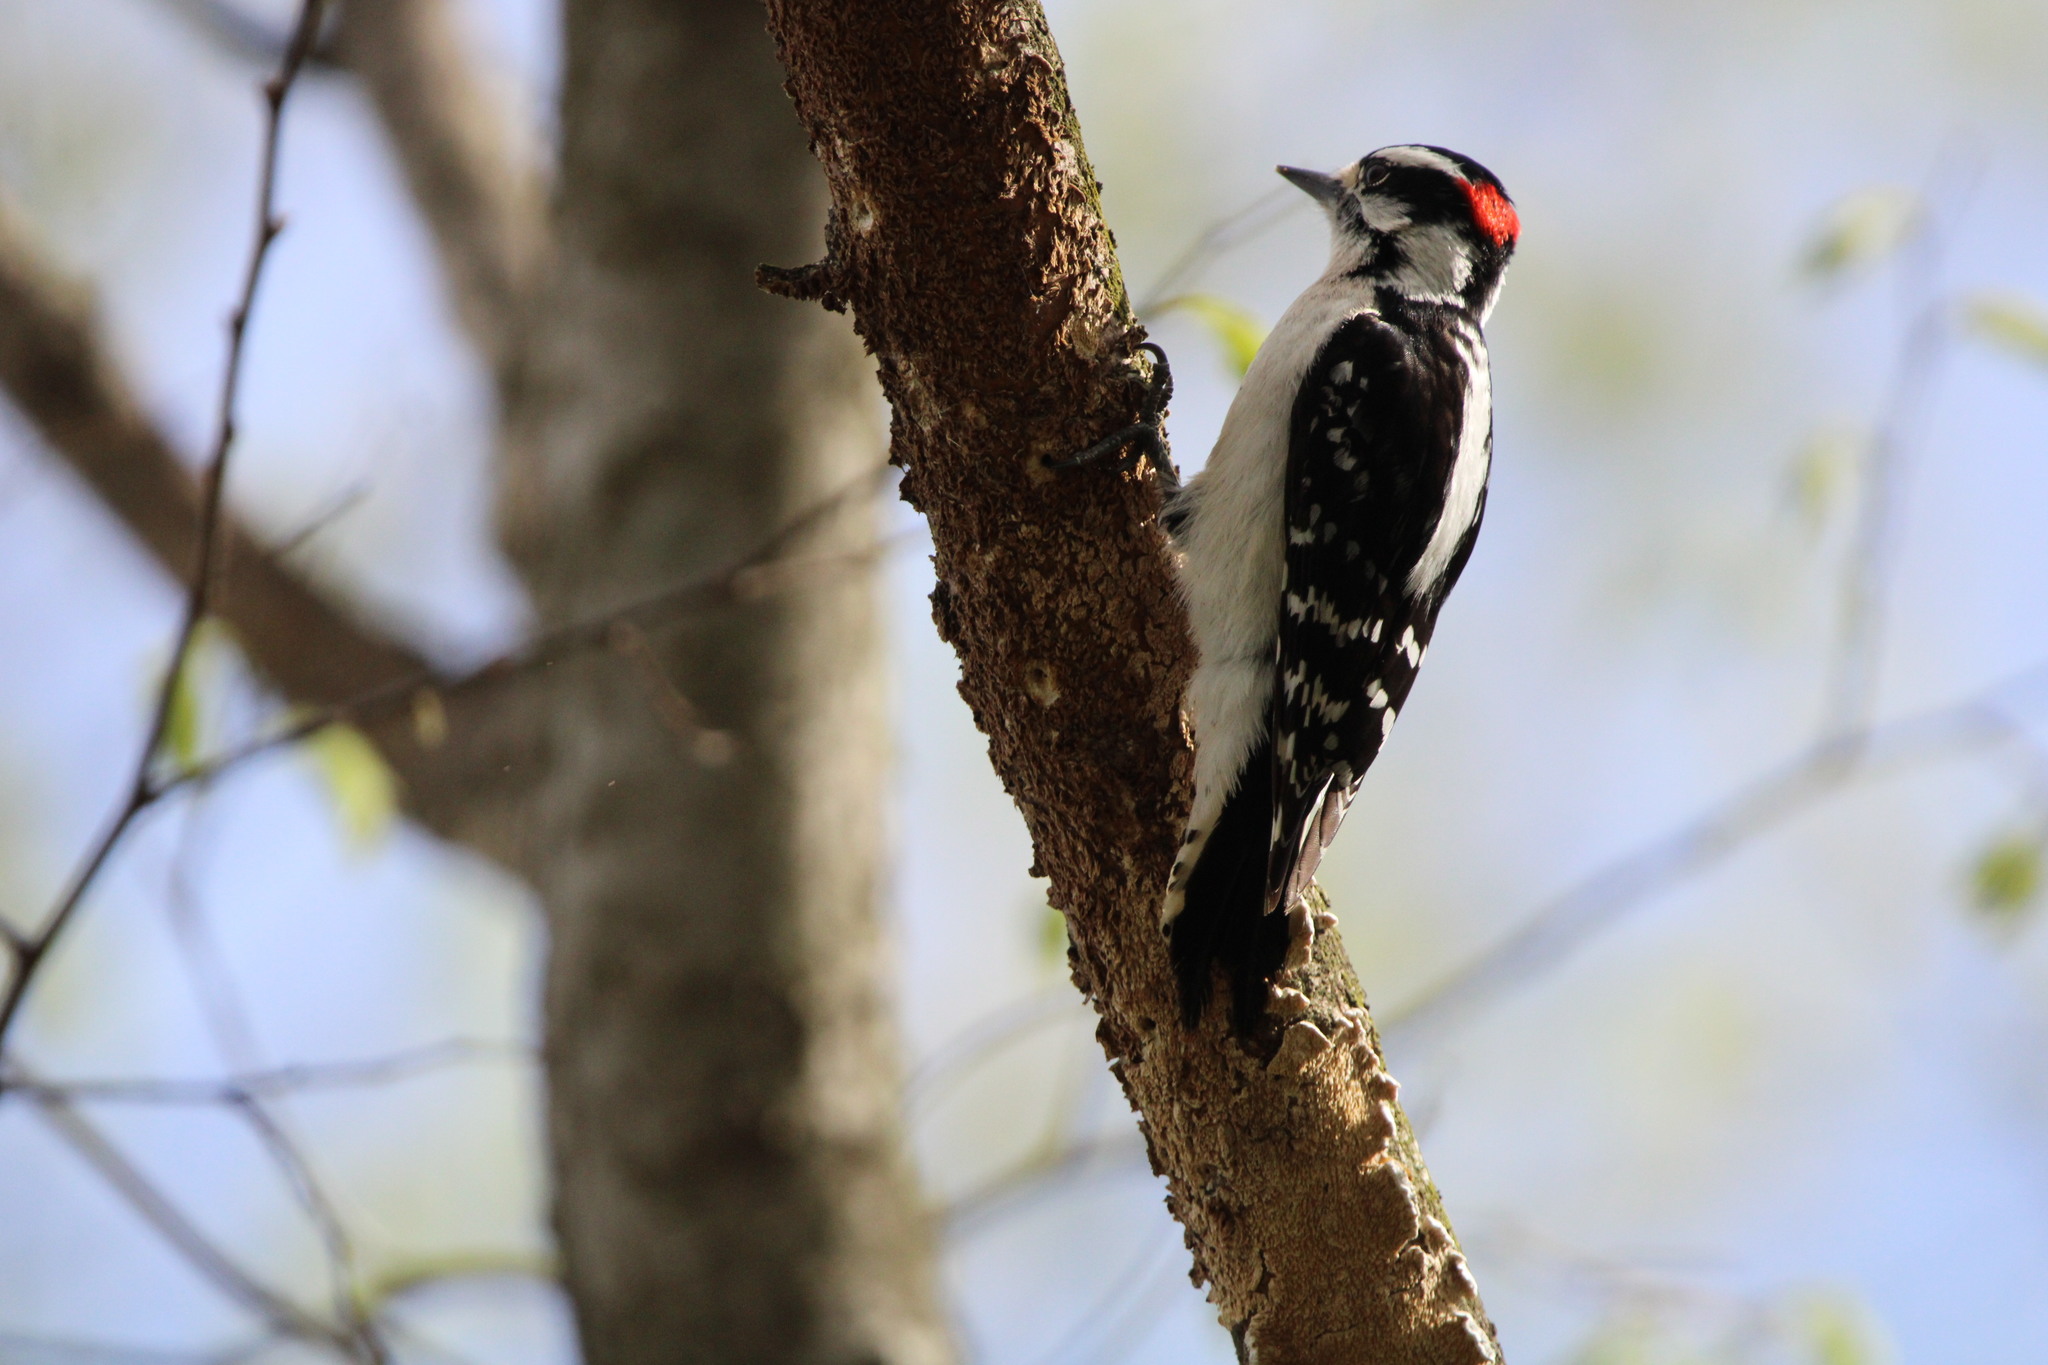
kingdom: Animalia
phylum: Chordata
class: Aves
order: Piciformes
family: Picidae
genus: Dryobates
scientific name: Dryobates pubescens
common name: Downy woodpecker
